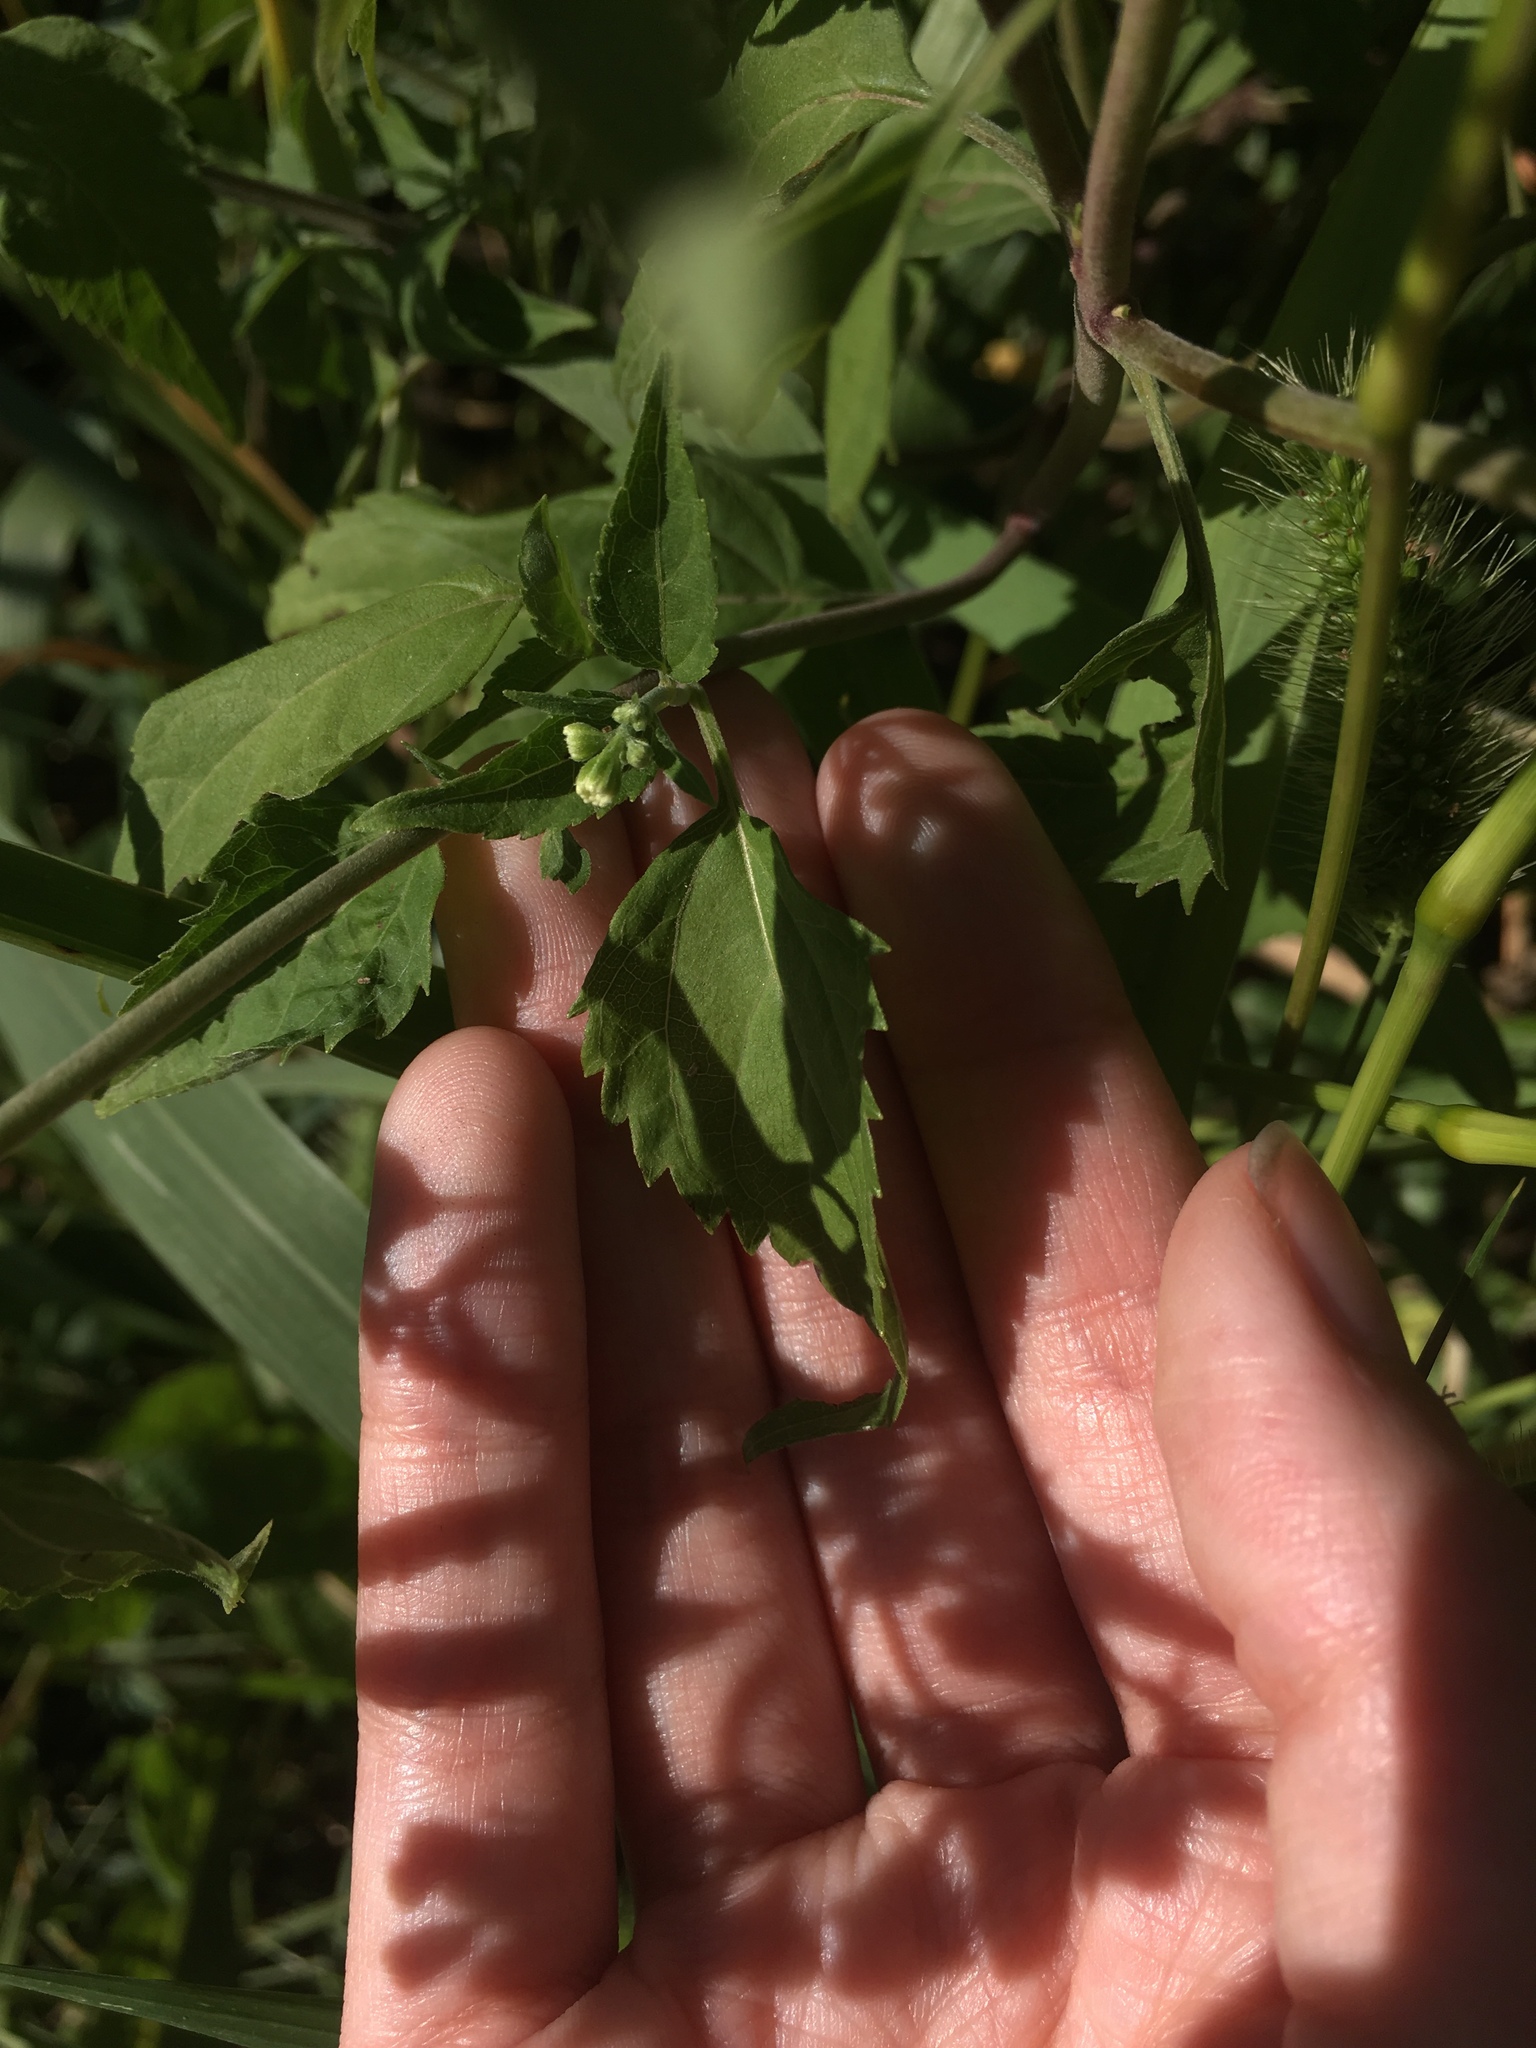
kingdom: Plantae
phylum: Tracheophyta
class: Magnoliopsida
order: Asterales
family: Asteraceae
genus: Ageratina
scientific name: Ageratina altissima
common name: White snakeroot
